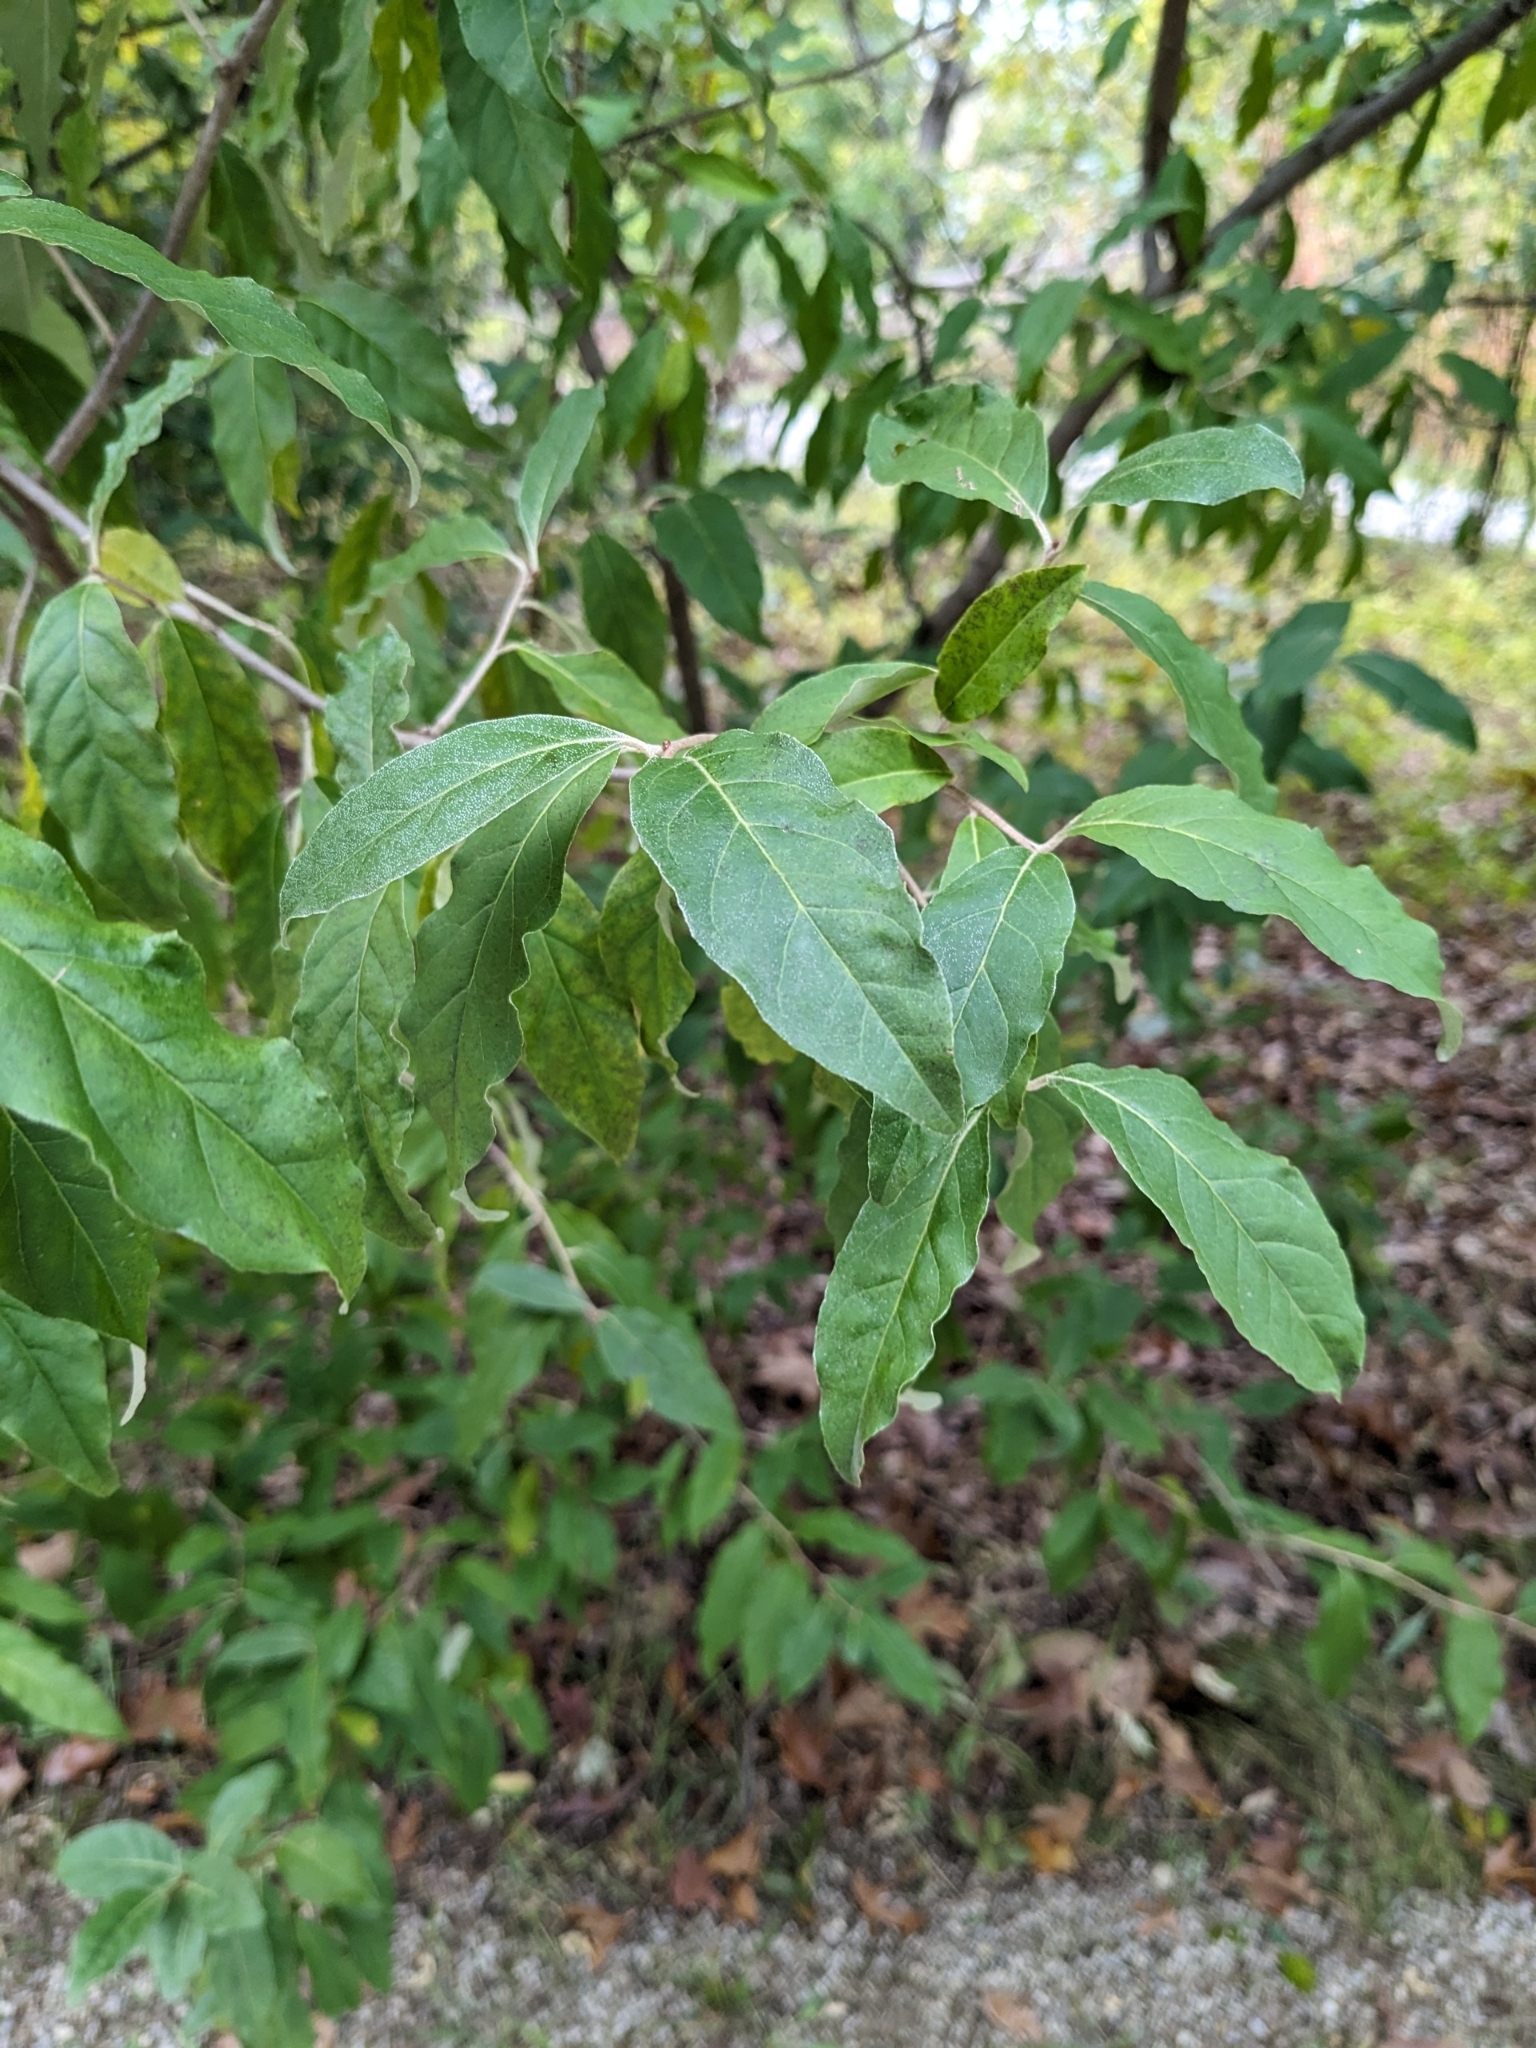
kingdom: Plantae
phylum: Tracheophyta
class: Magnoliopsida
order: Rosales
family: Elaeagnaceae
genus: Elaeagnus
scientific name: Elaeagnus umbellata
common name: Autumn olive
